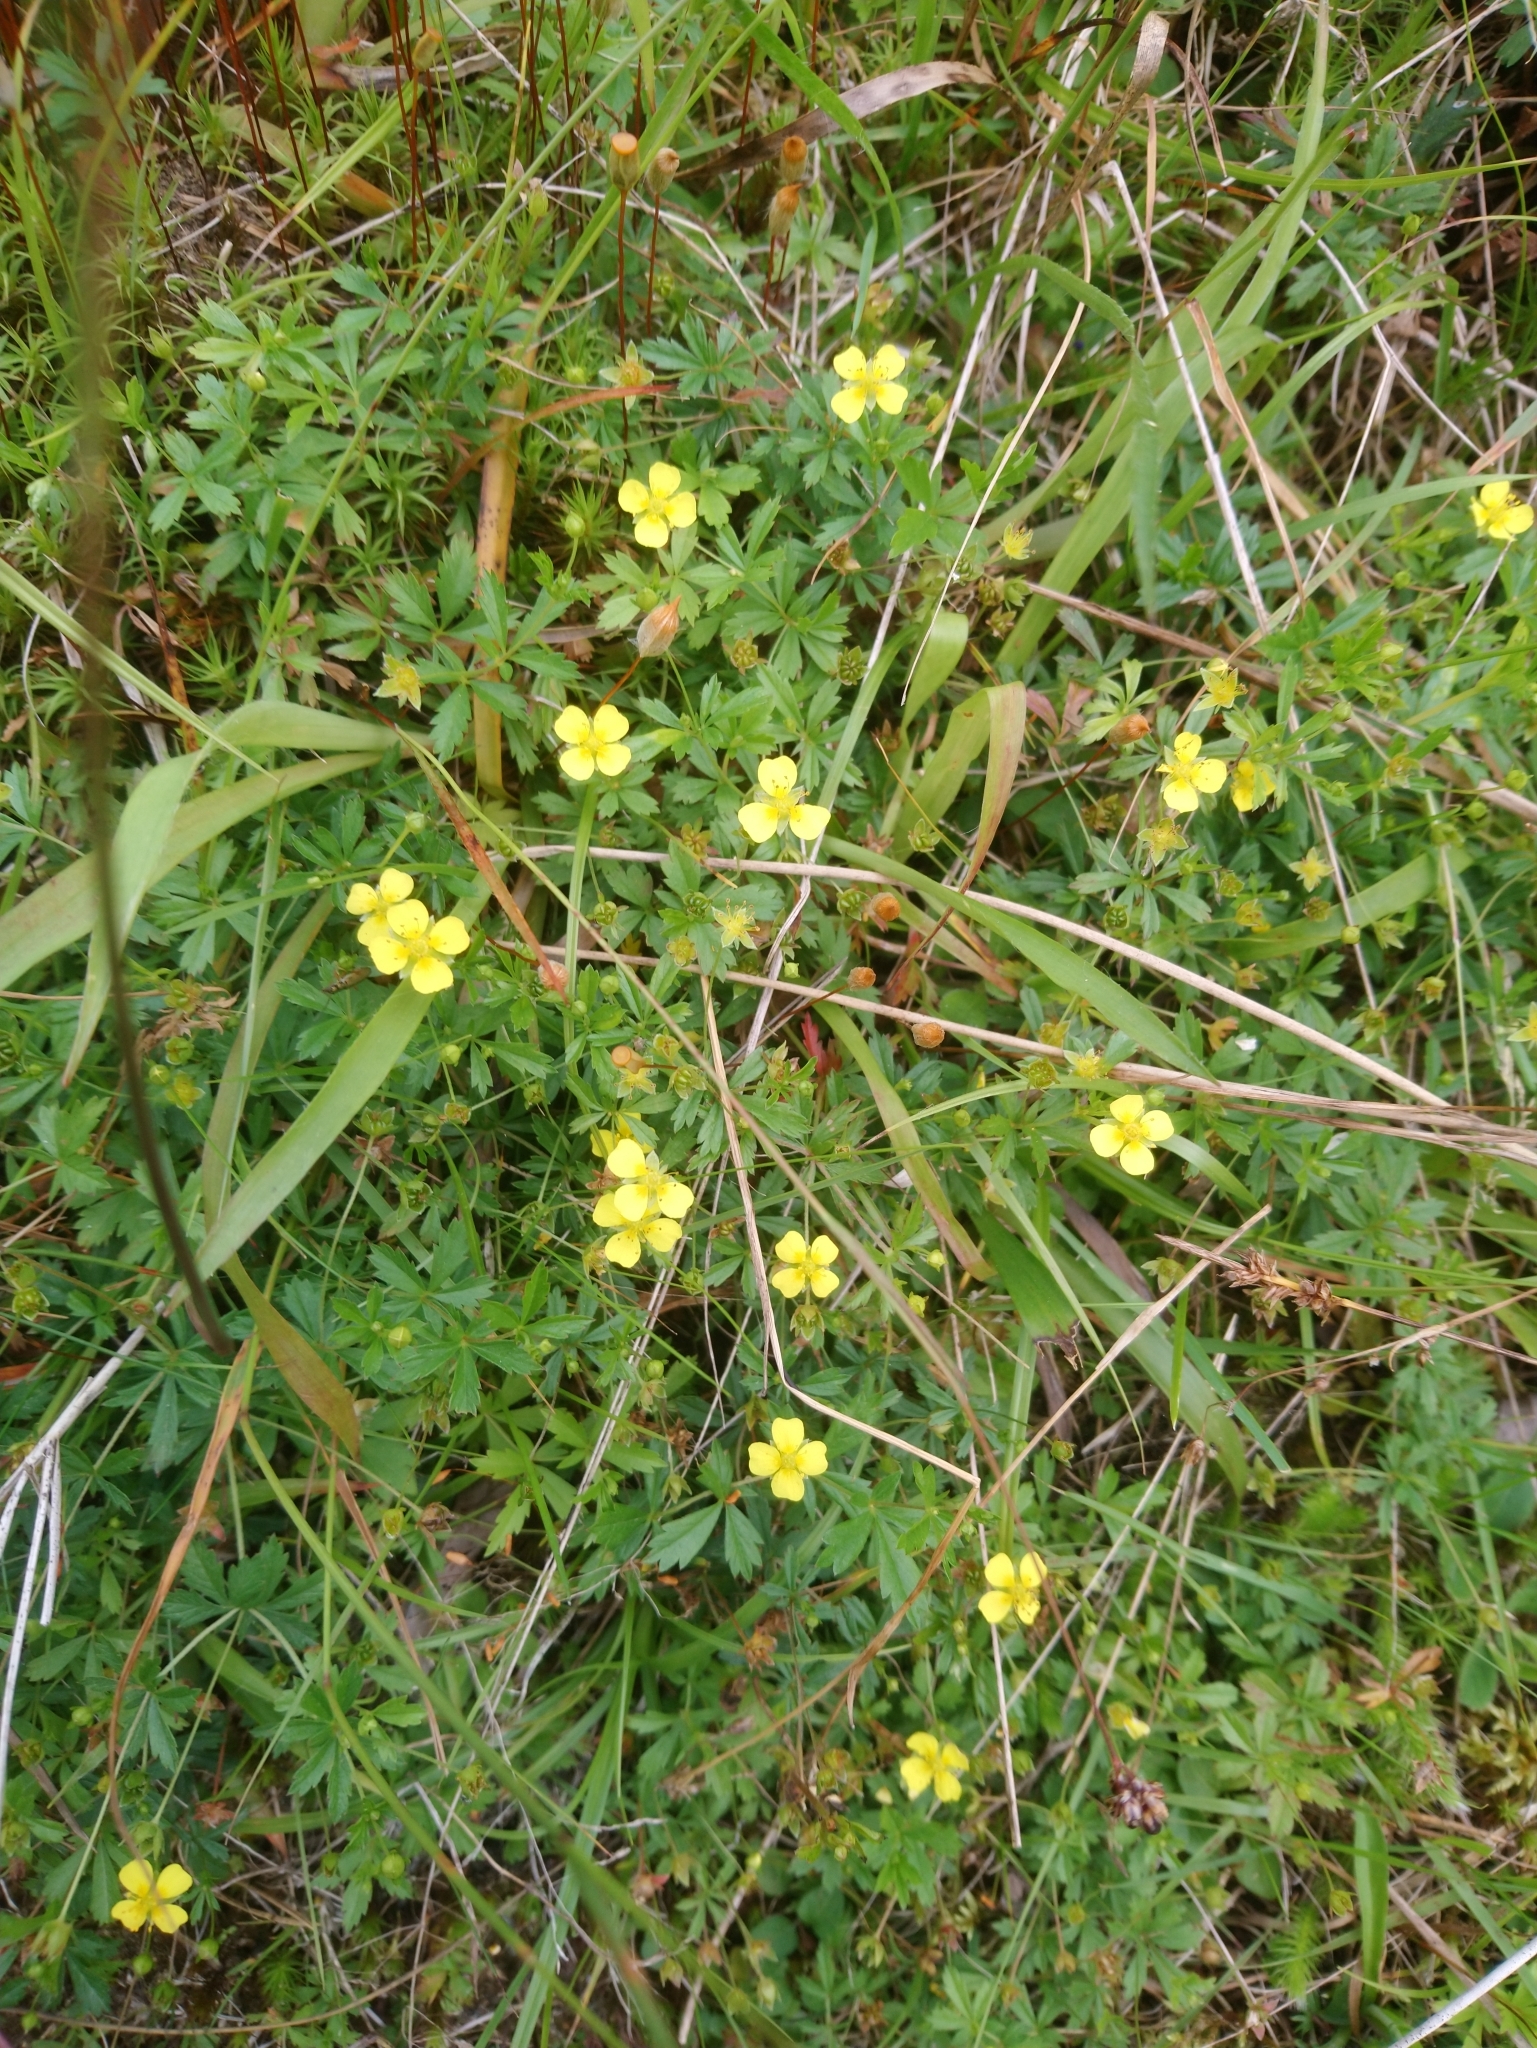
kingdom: Plantae
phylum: Tracheophyta
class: Magnoliopsida
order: Rosales
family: Rosaceae
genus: Potentilla
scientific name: Potentilla erecta
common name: Tormentil
